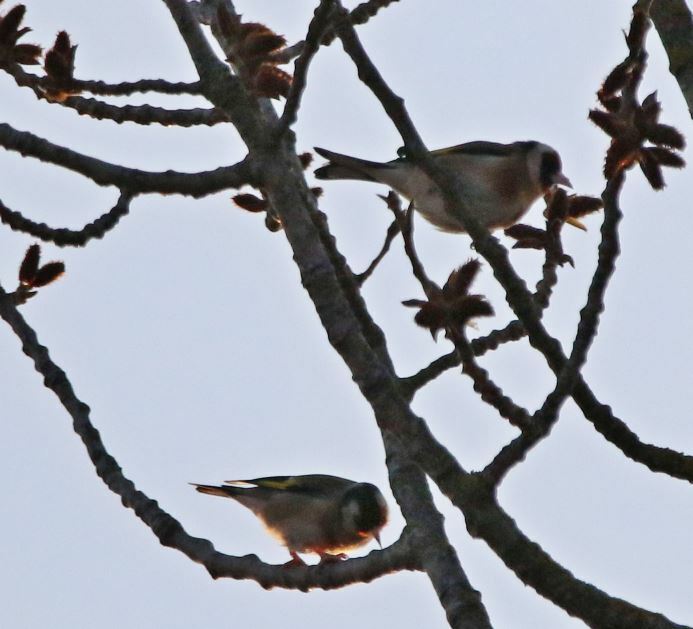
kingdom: Animalia
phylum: Chordata
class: Aves
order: Passeriformes
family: Fringillidae
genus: Carduelis
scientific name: Carduelis carduelis
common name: European goldfinch
